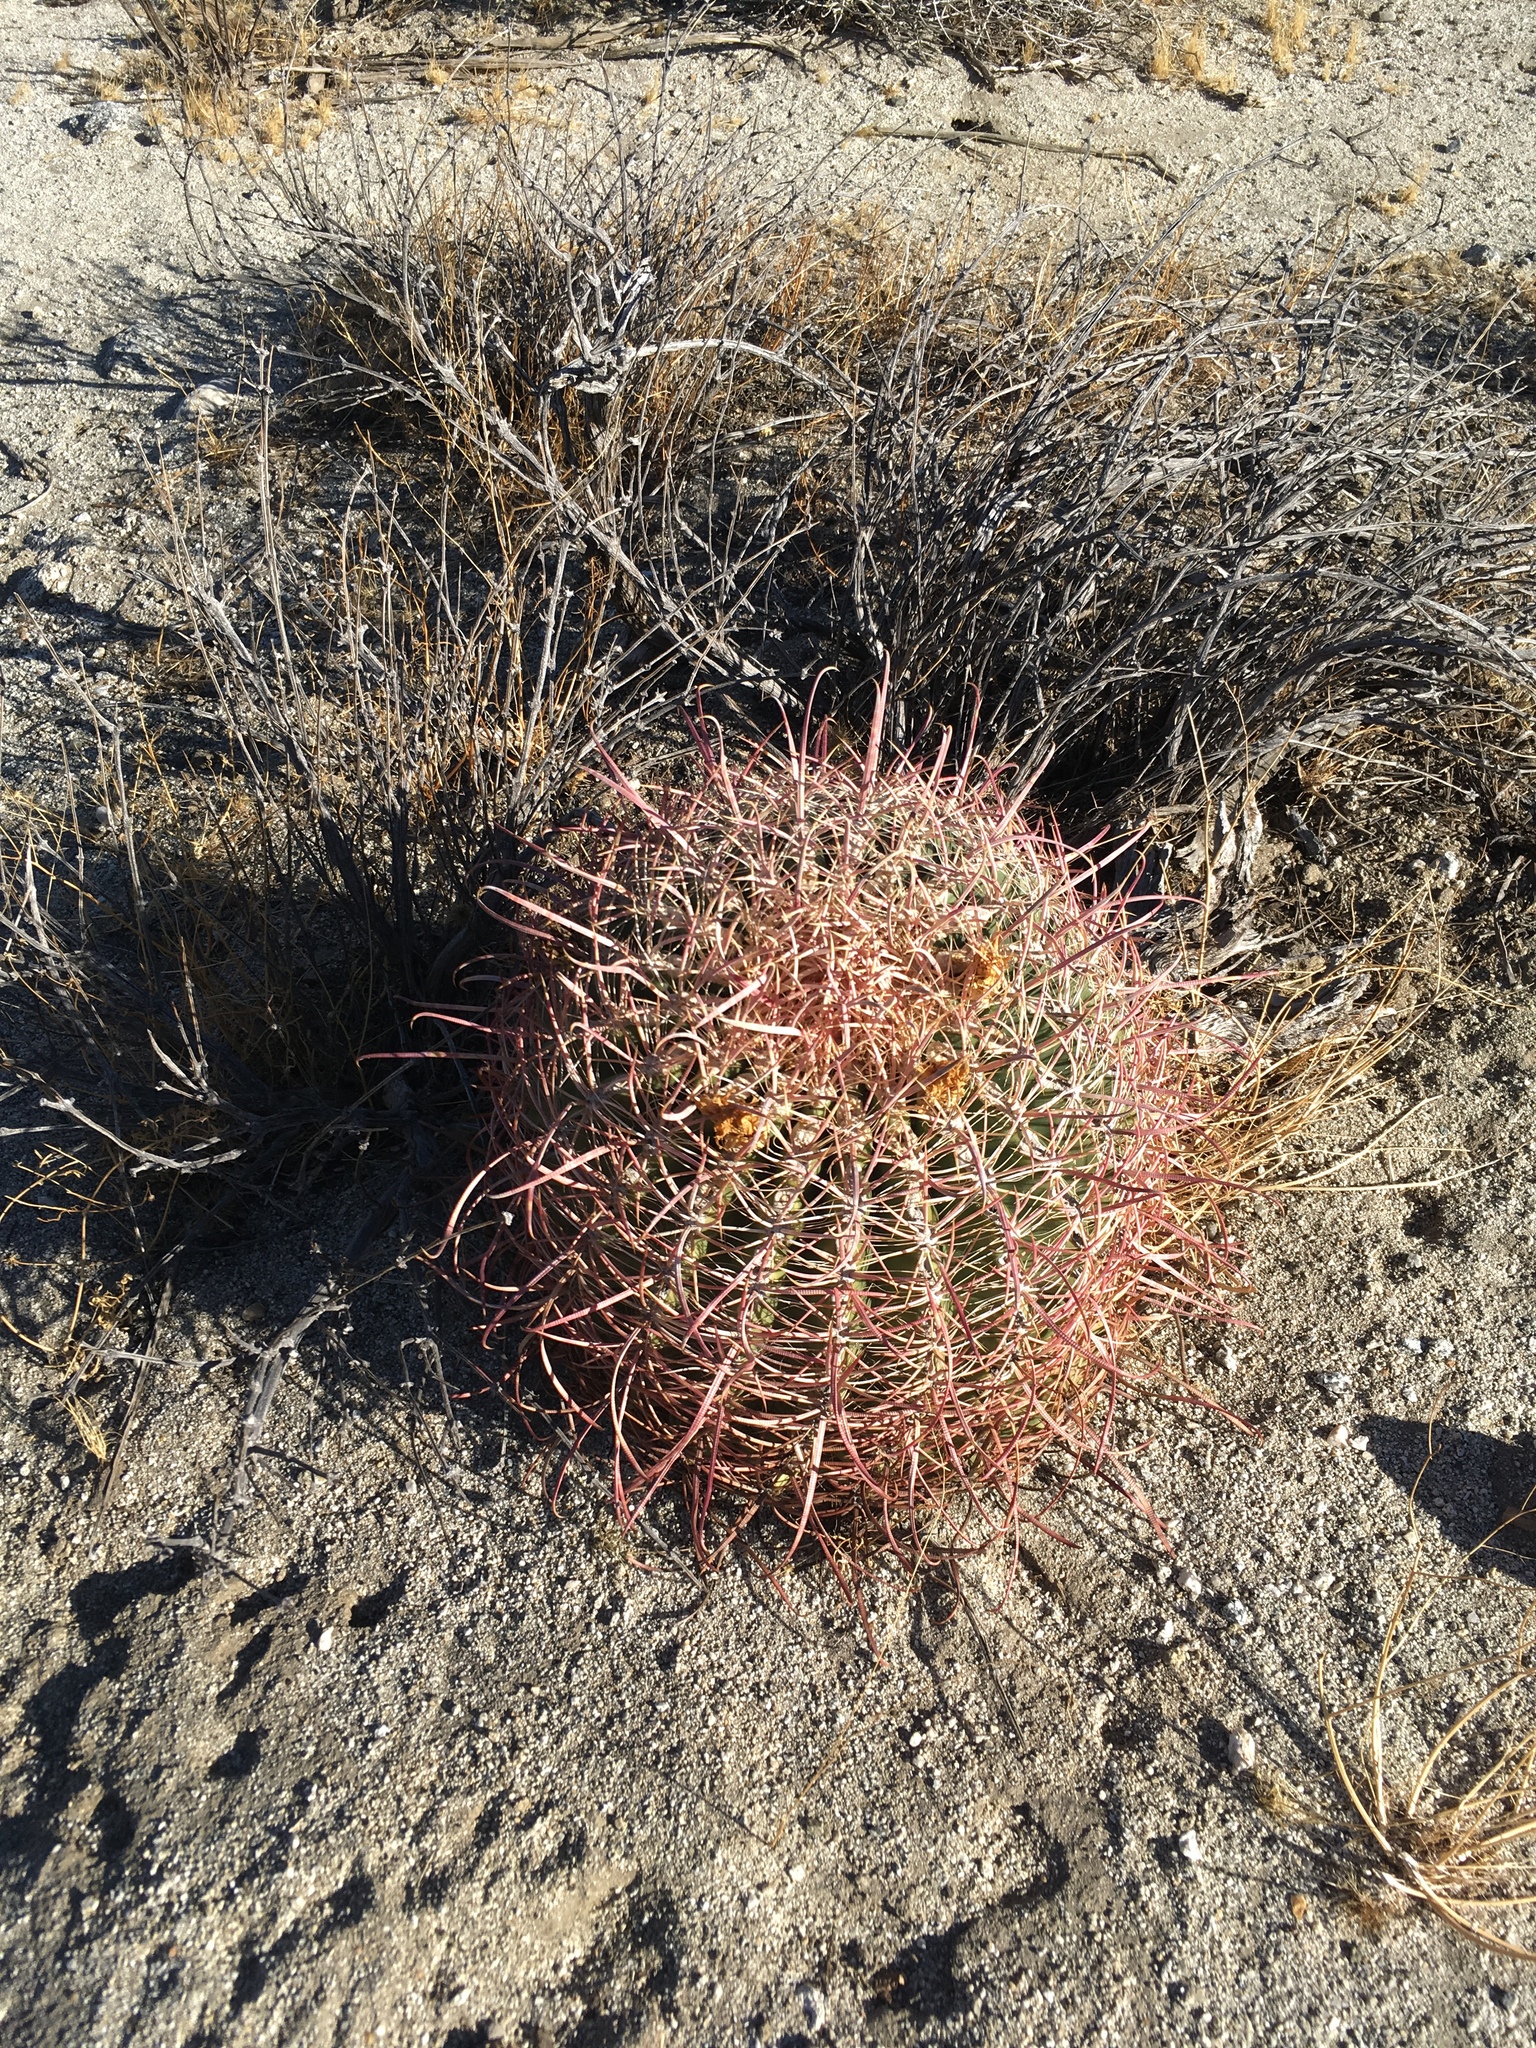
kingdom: Plantae
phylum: Tracheophyta
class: Magnoliopsida
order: Caryophyllales
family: Cactaceae
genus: Ferocactus
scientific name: Ferocactus cylindraceus
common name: California barrel cactus
